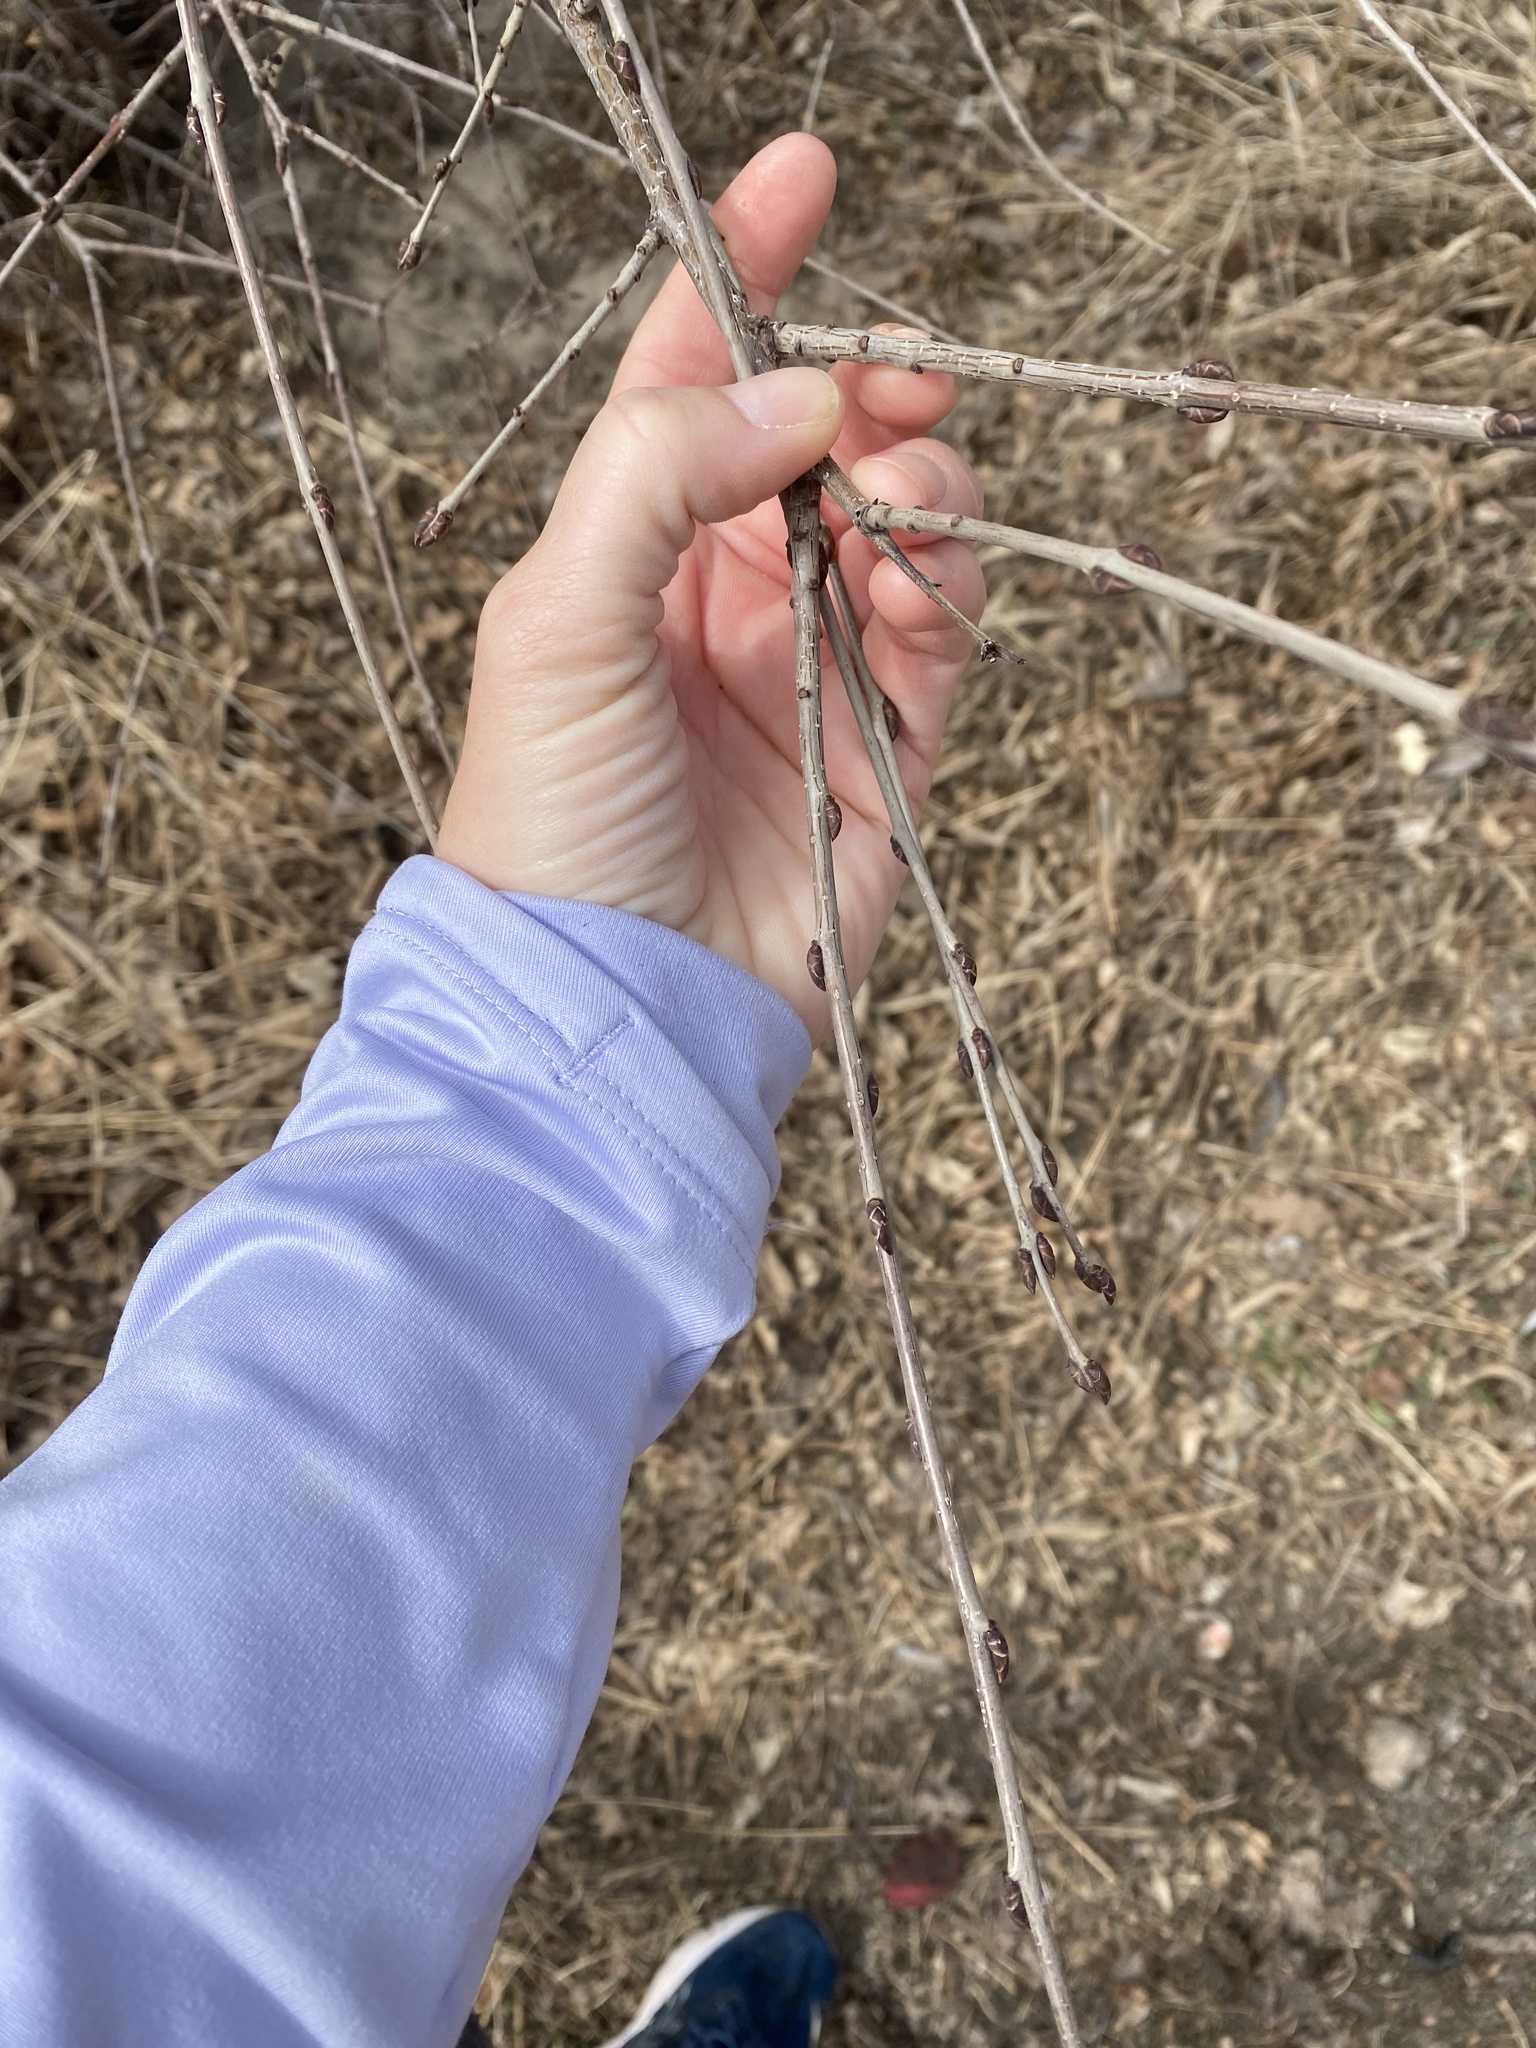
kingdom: Plantae
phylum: Tracheophyta
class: Magnoliopsida
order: Rosales
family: Rhamnaceae
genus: Rhamnus
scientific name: Rhamnus cathartica
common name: Common buckthorn
